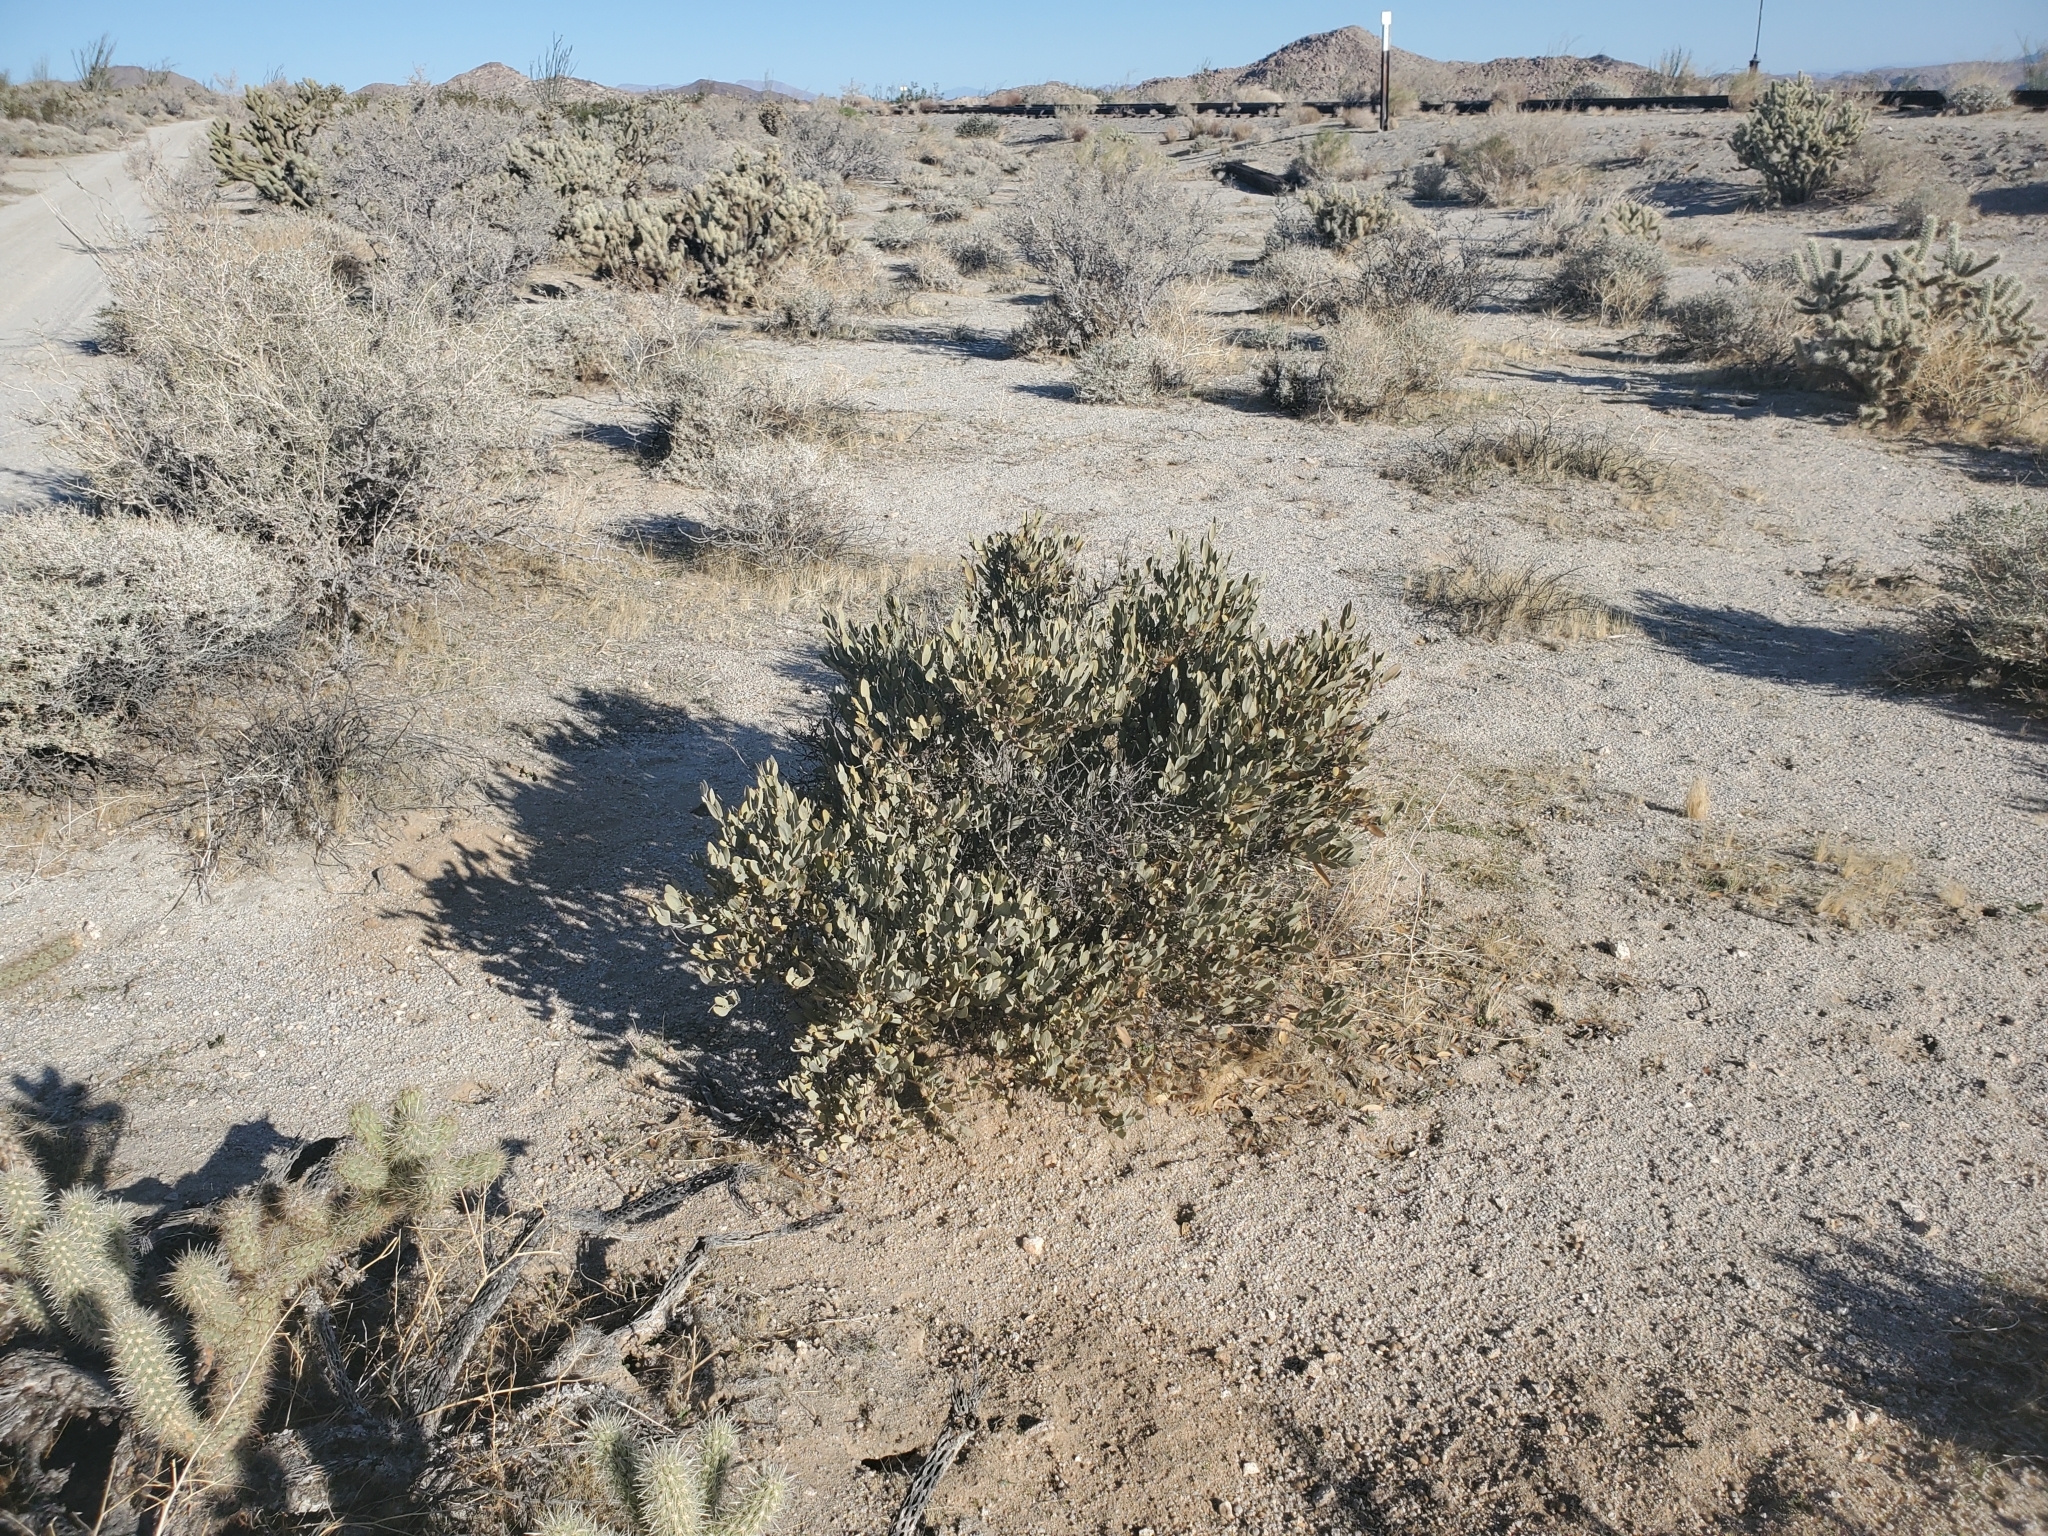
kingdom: Plantae
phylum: Tracheophyta
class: Magnoliopsida
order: Caryophyllales
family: Simmondsiaceae
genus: Simmondsia
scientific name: Simmondsia chinensis
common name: Jojoba
